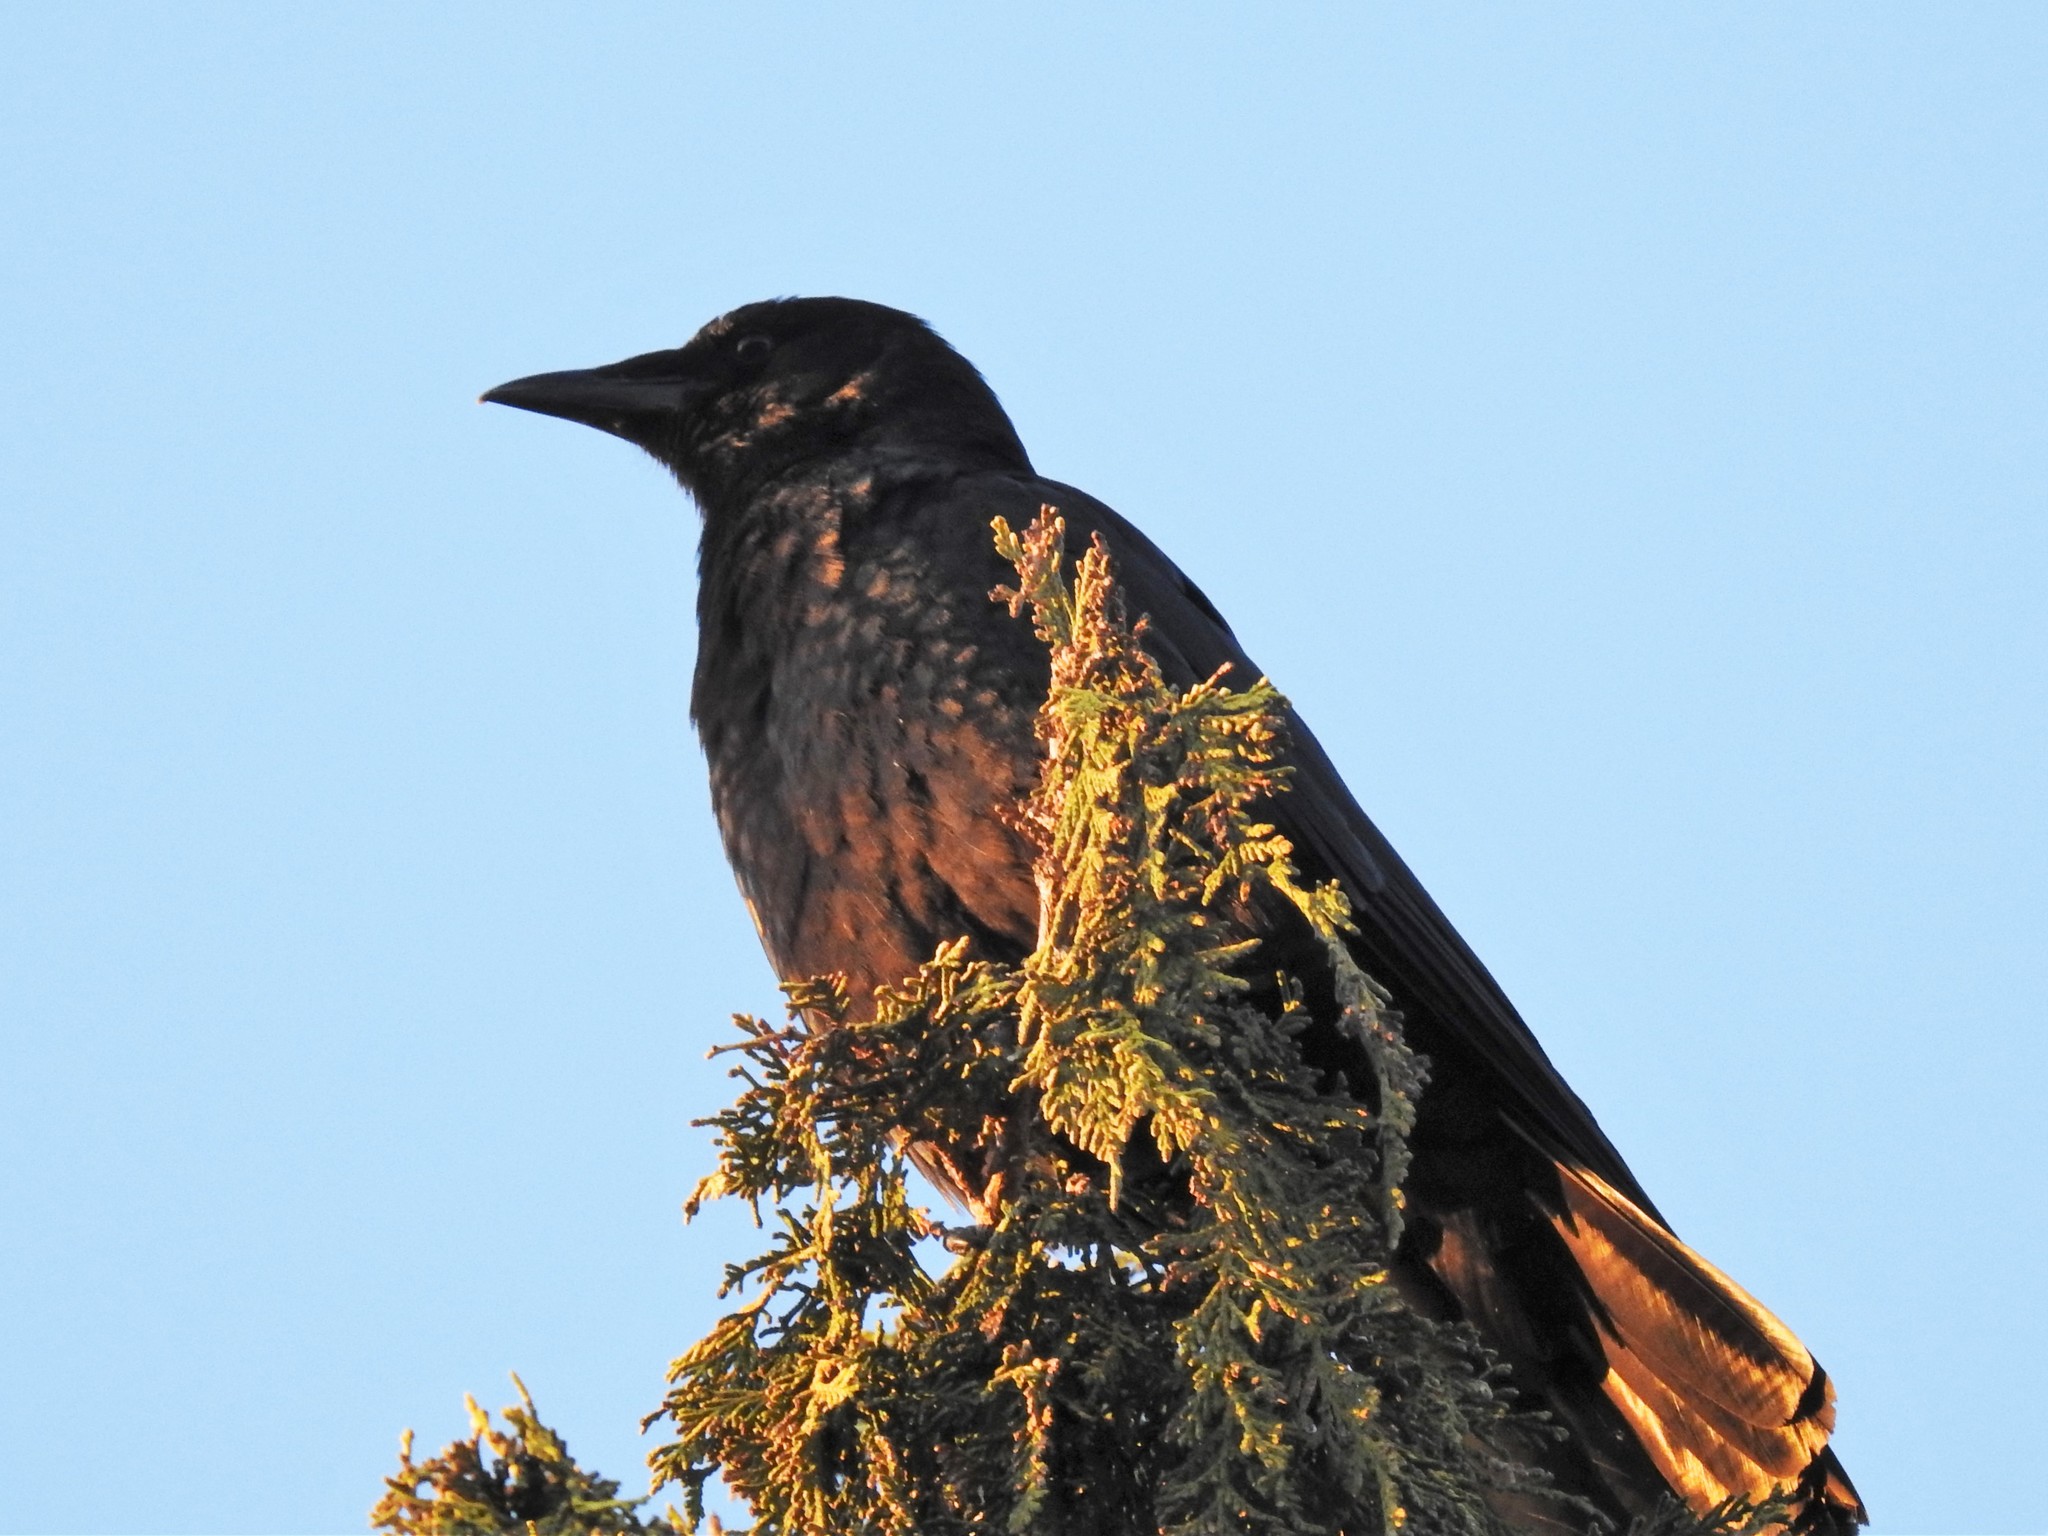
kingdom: Animalia
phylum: Chordata
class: Aves
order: Passeriformes
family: Corvidae
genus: Corvus
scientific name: Corvus brachyrhynchos
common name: American crow
